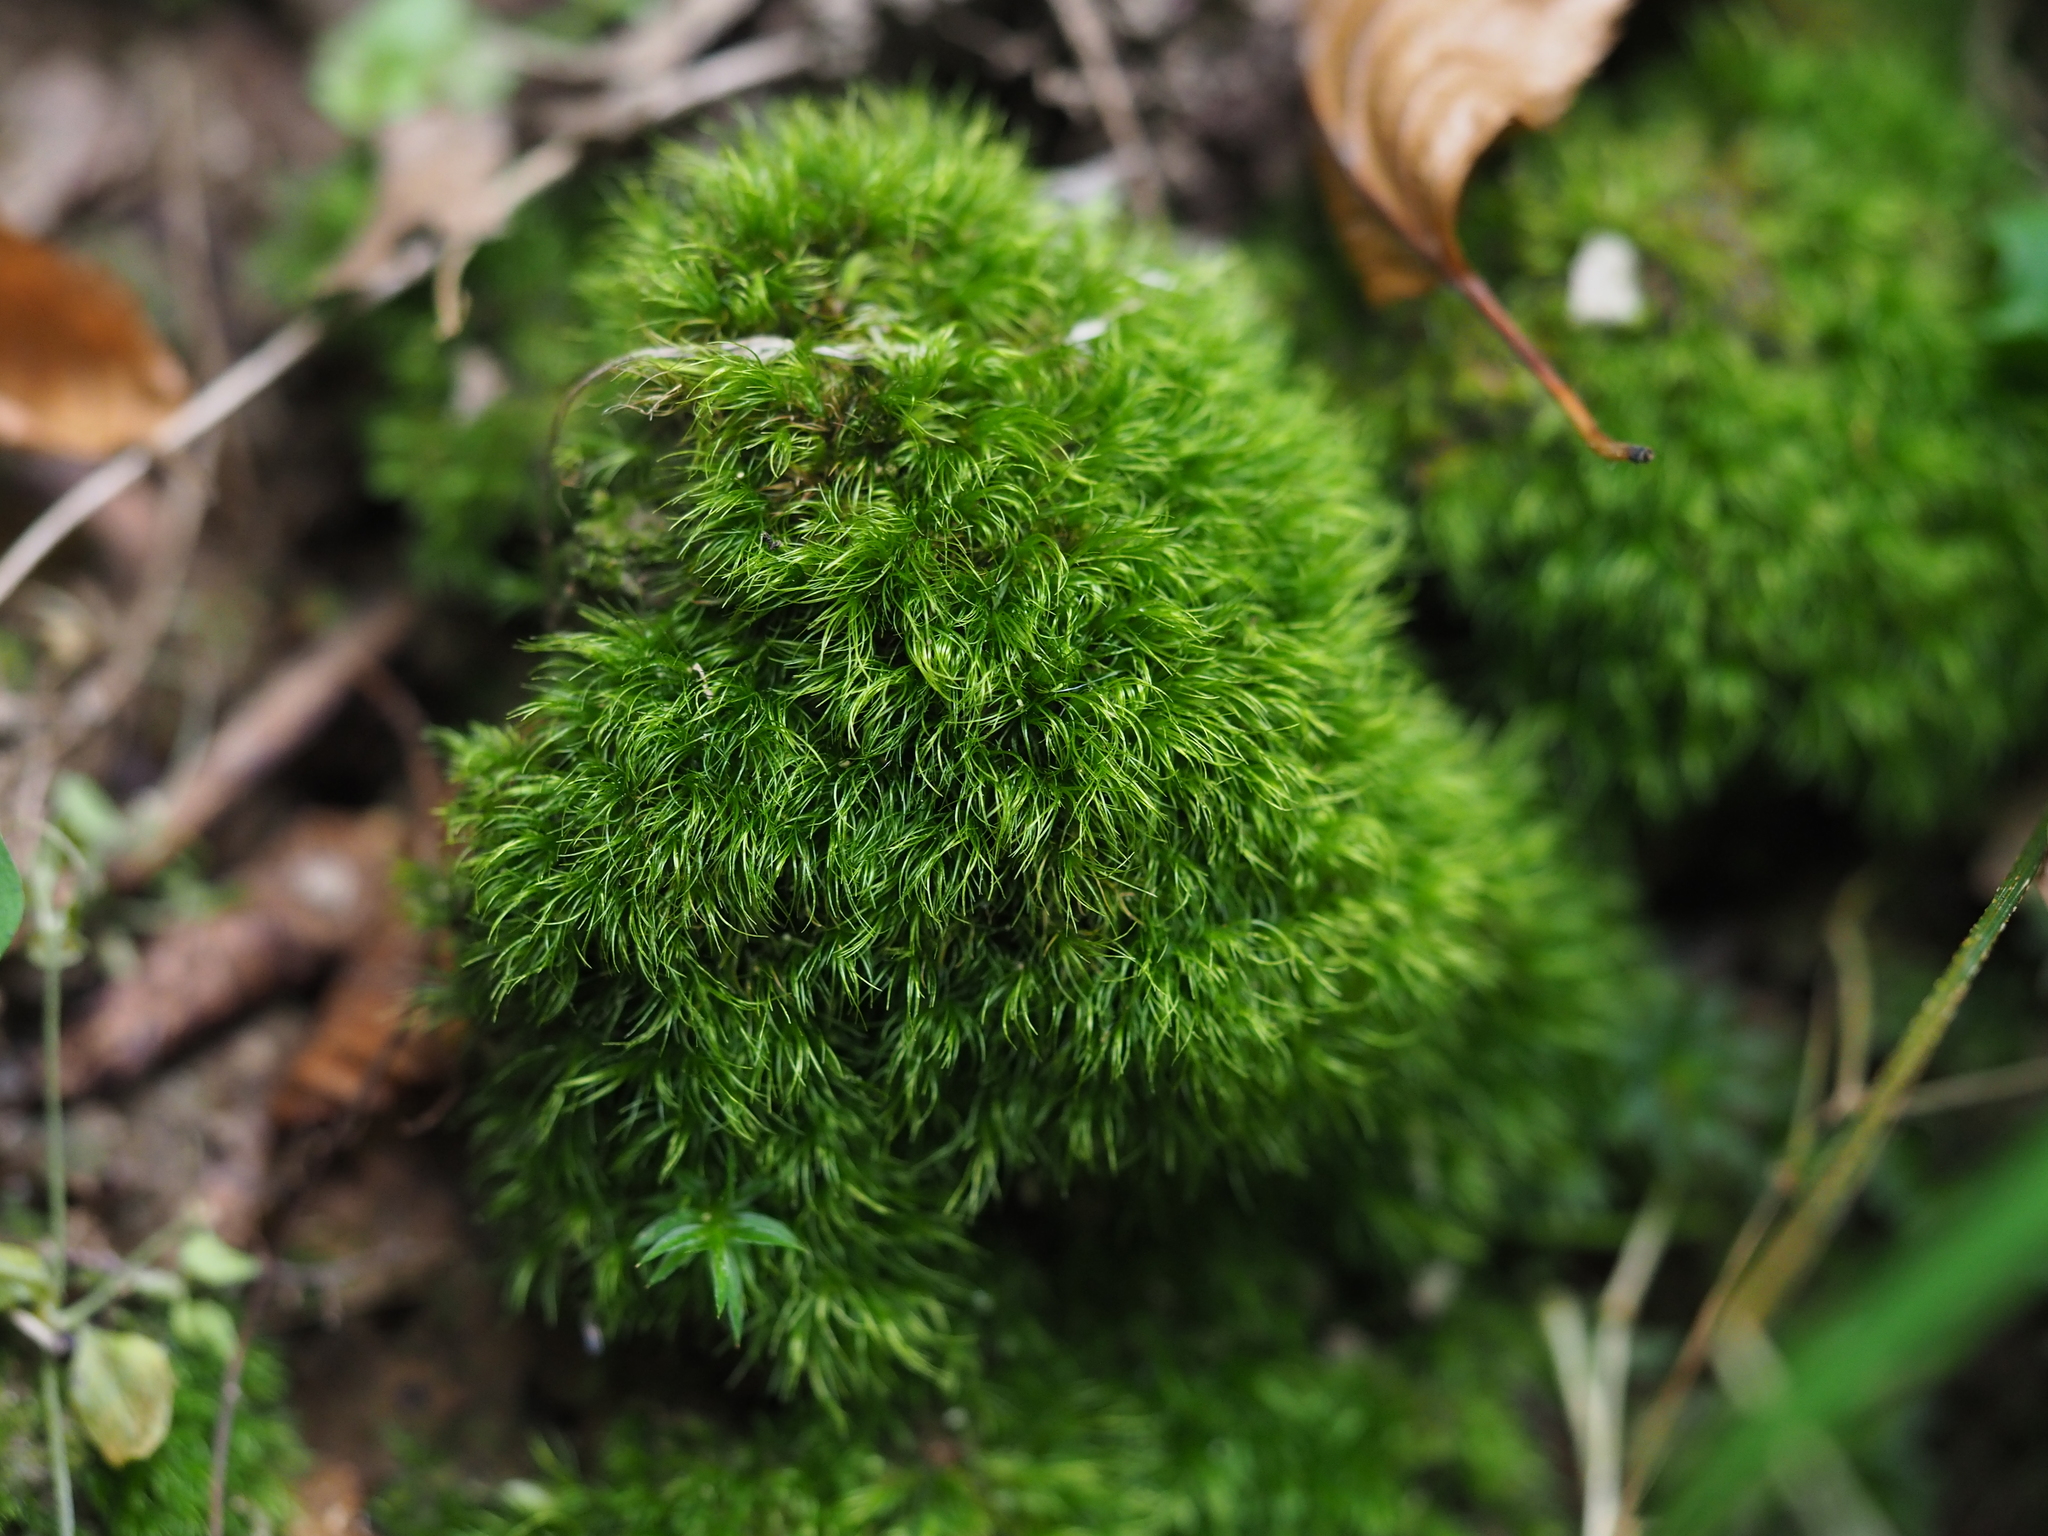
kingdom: Plantae
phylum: Bryophyta
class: Bryopsida
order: Dicranales
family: Dicranaceae
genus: Dicranum
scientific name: Dicranum scoparium
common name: Broom fork-moss
